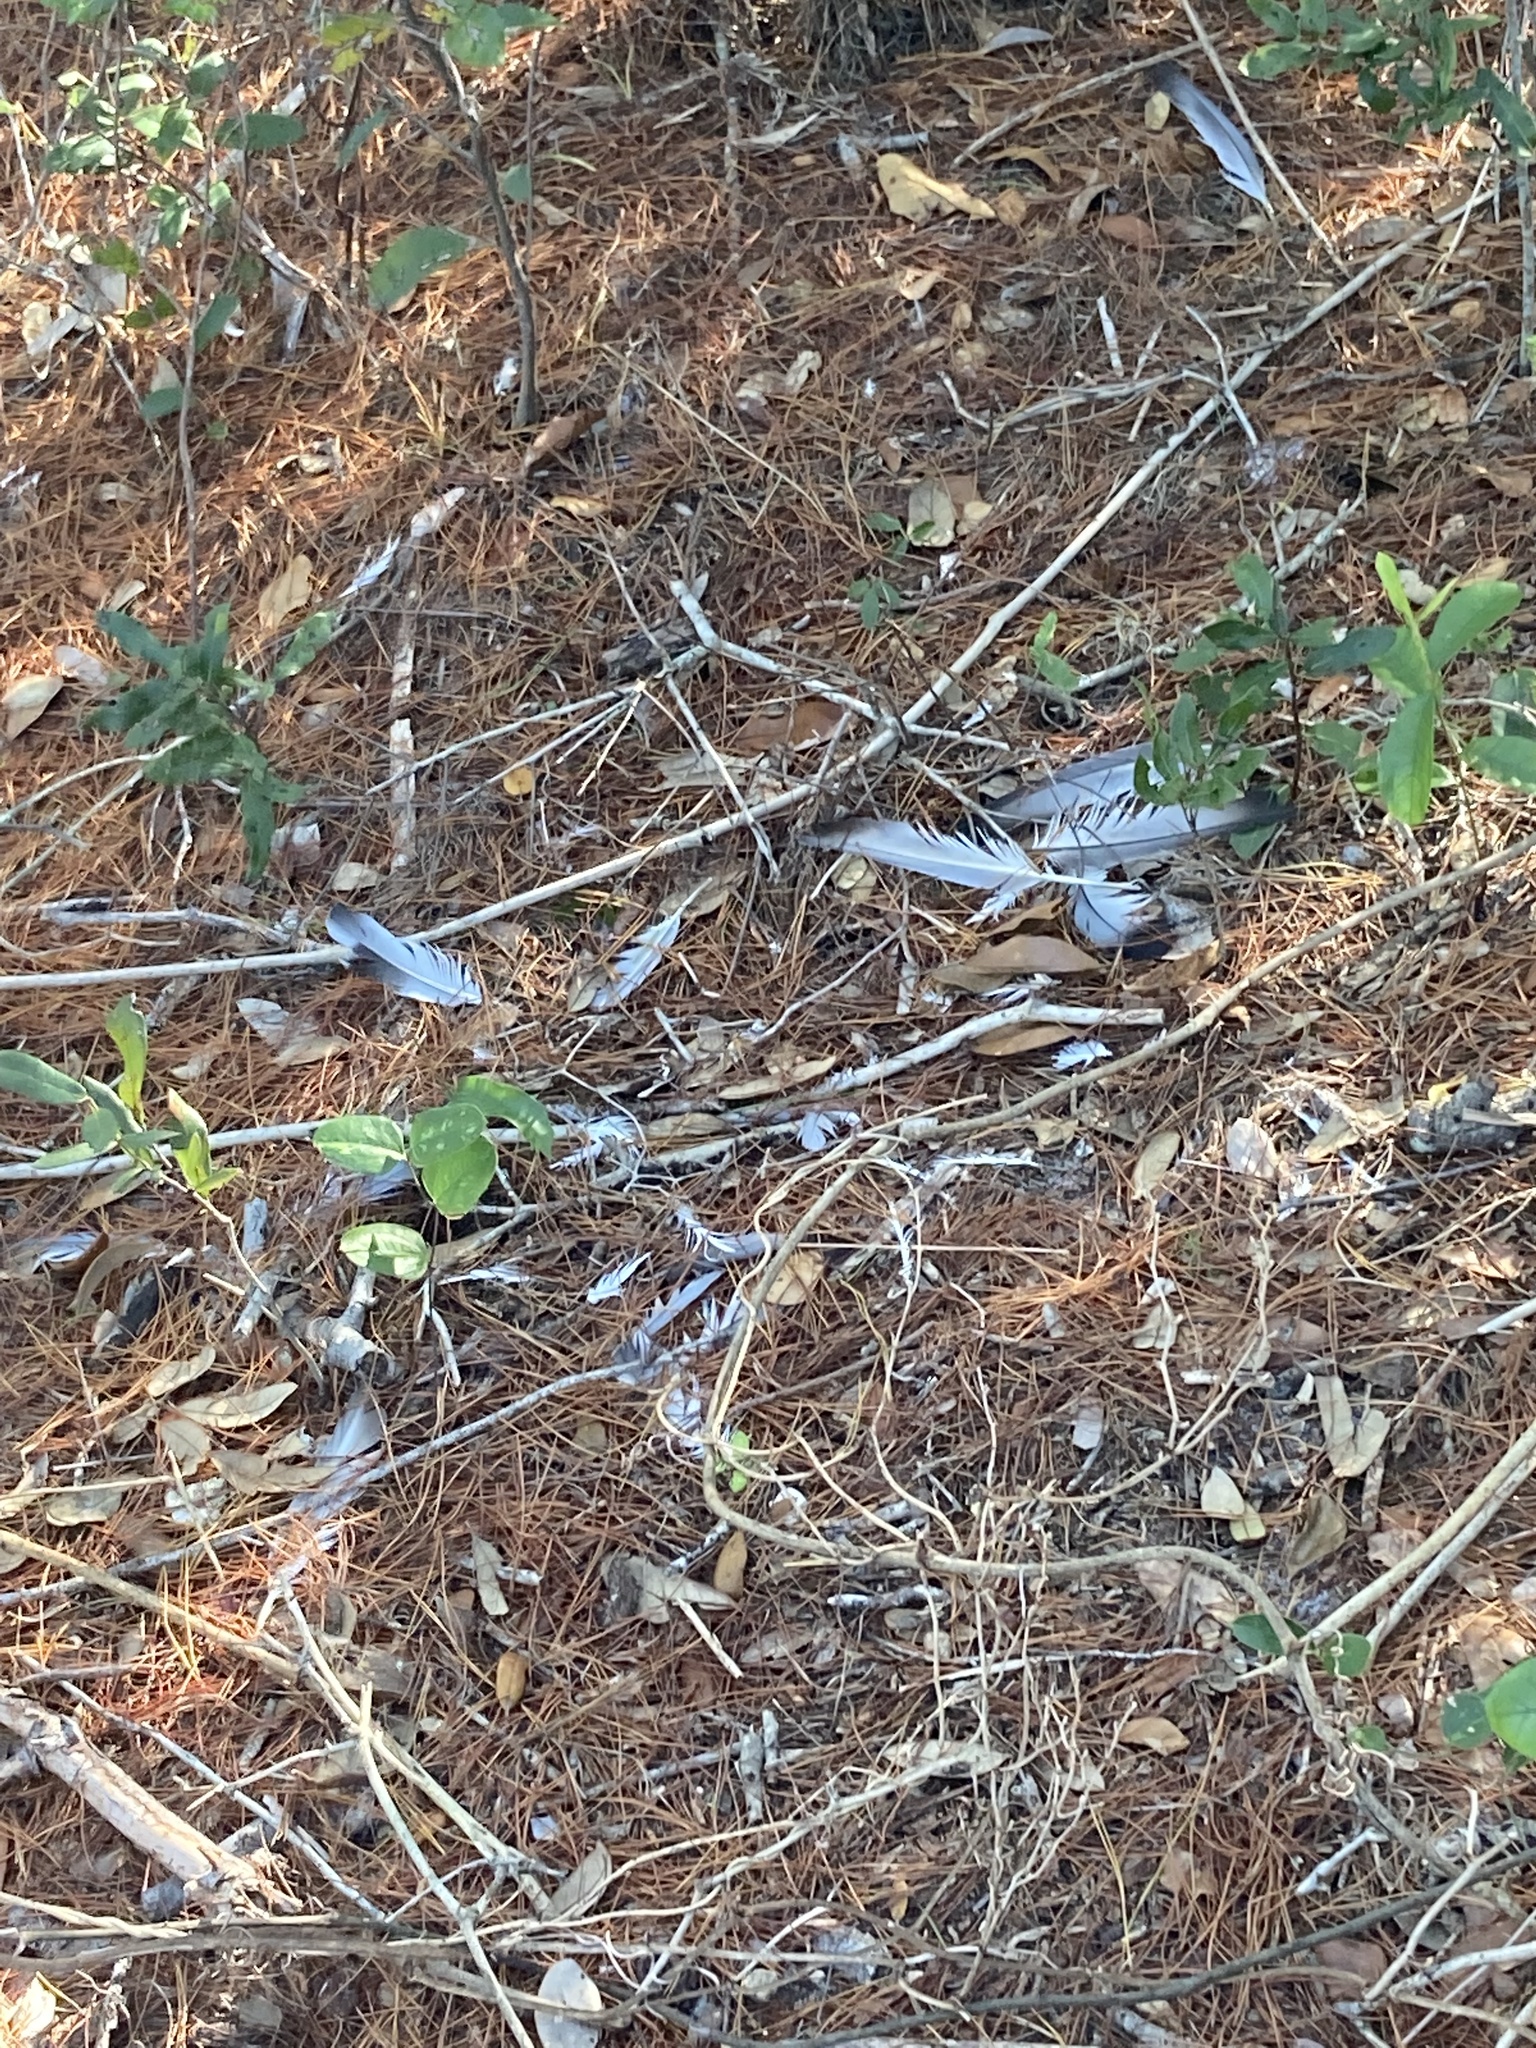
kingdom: Animalia
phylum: Chordata
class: Aves
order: Columbiformes
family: Columbidae
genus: Columba
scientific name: Columba livia
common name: Rock pigeon
